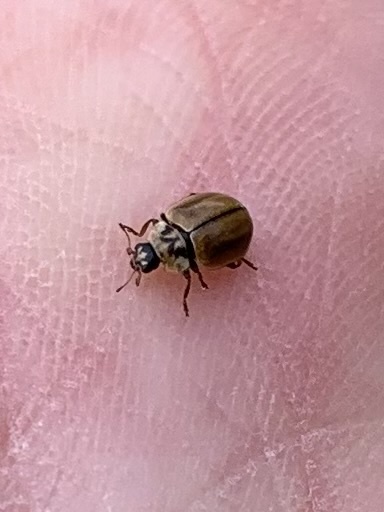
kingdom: Animalia
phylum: Arthropoda
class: Insecta
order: Coleoptera
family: Coccinellidae
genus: Aphidecta
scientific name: Aphidecta obliterata
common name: Larch ladybird
